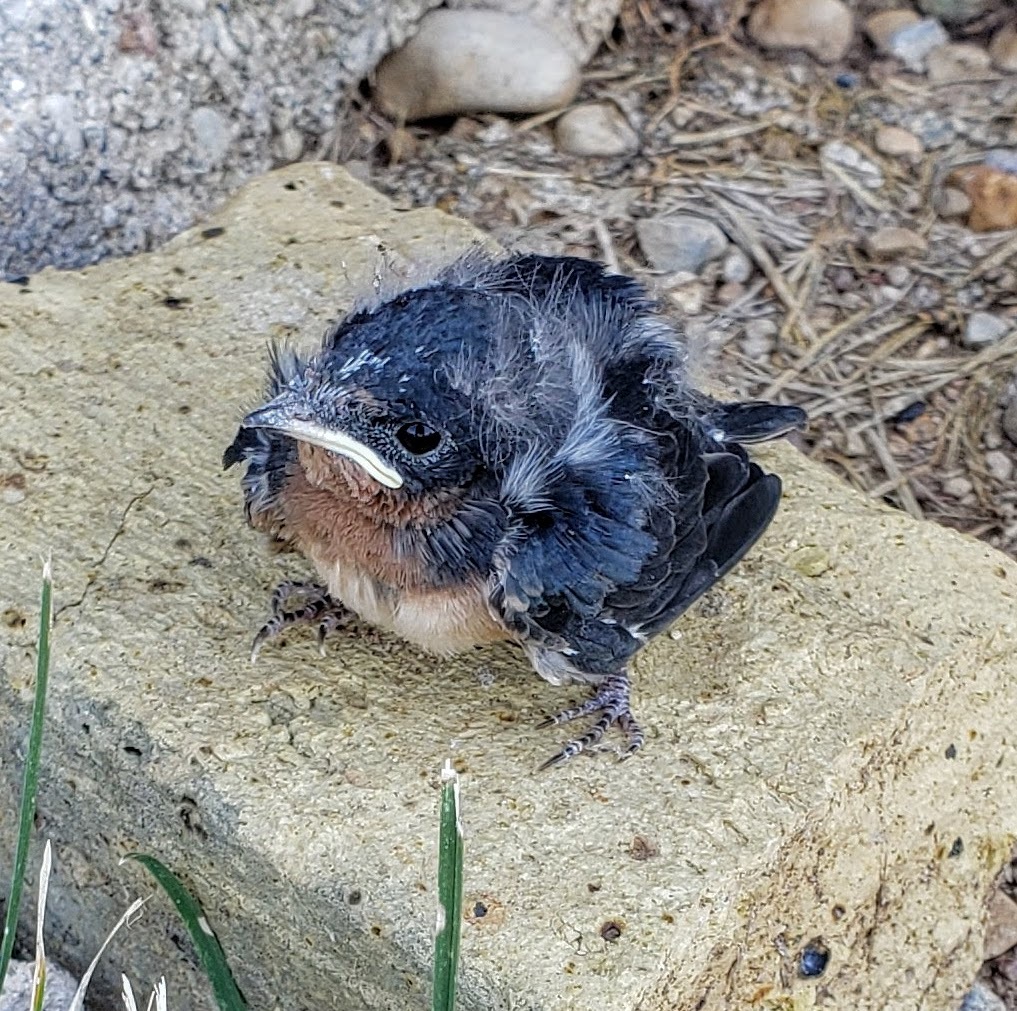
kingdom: Animalia
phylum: Chordata
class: Aves
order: Passeriformes
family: Hirundinidae
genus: Hirundo
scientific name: Hirundo rustica
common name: Barn swallow
